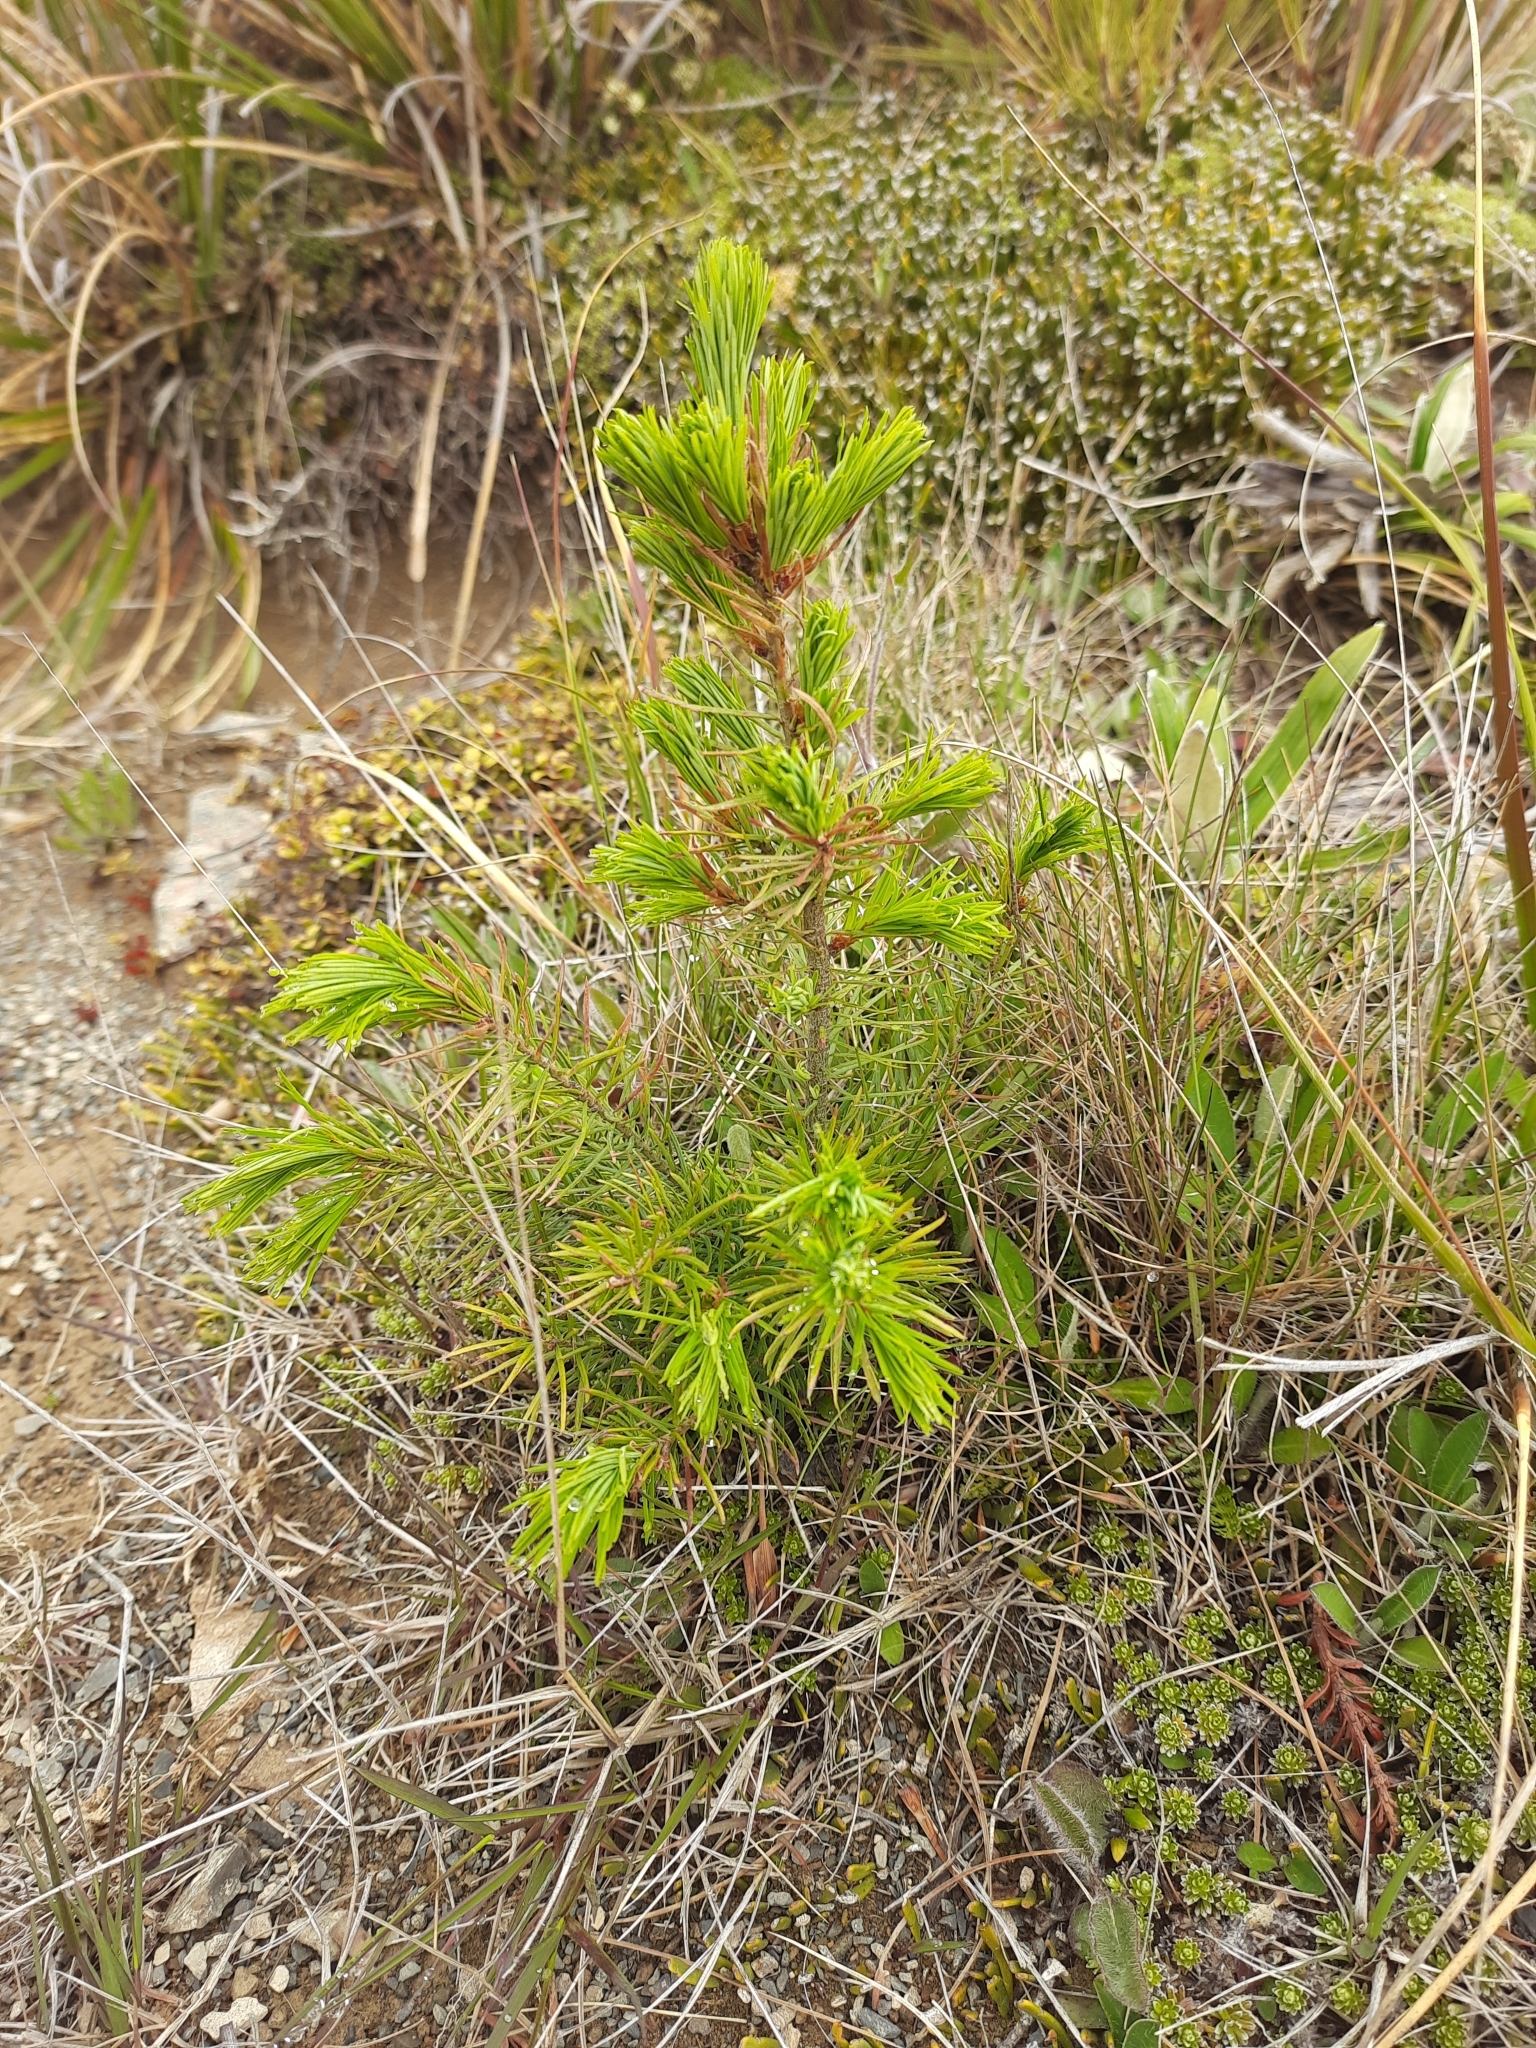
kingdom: Plantae
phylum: Tracheophyta
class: Pinopsida
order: Pinales
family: Pinaceae
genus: Pseudotsuga
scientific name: Pseudotsuga menziesii
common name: Douglas fir
